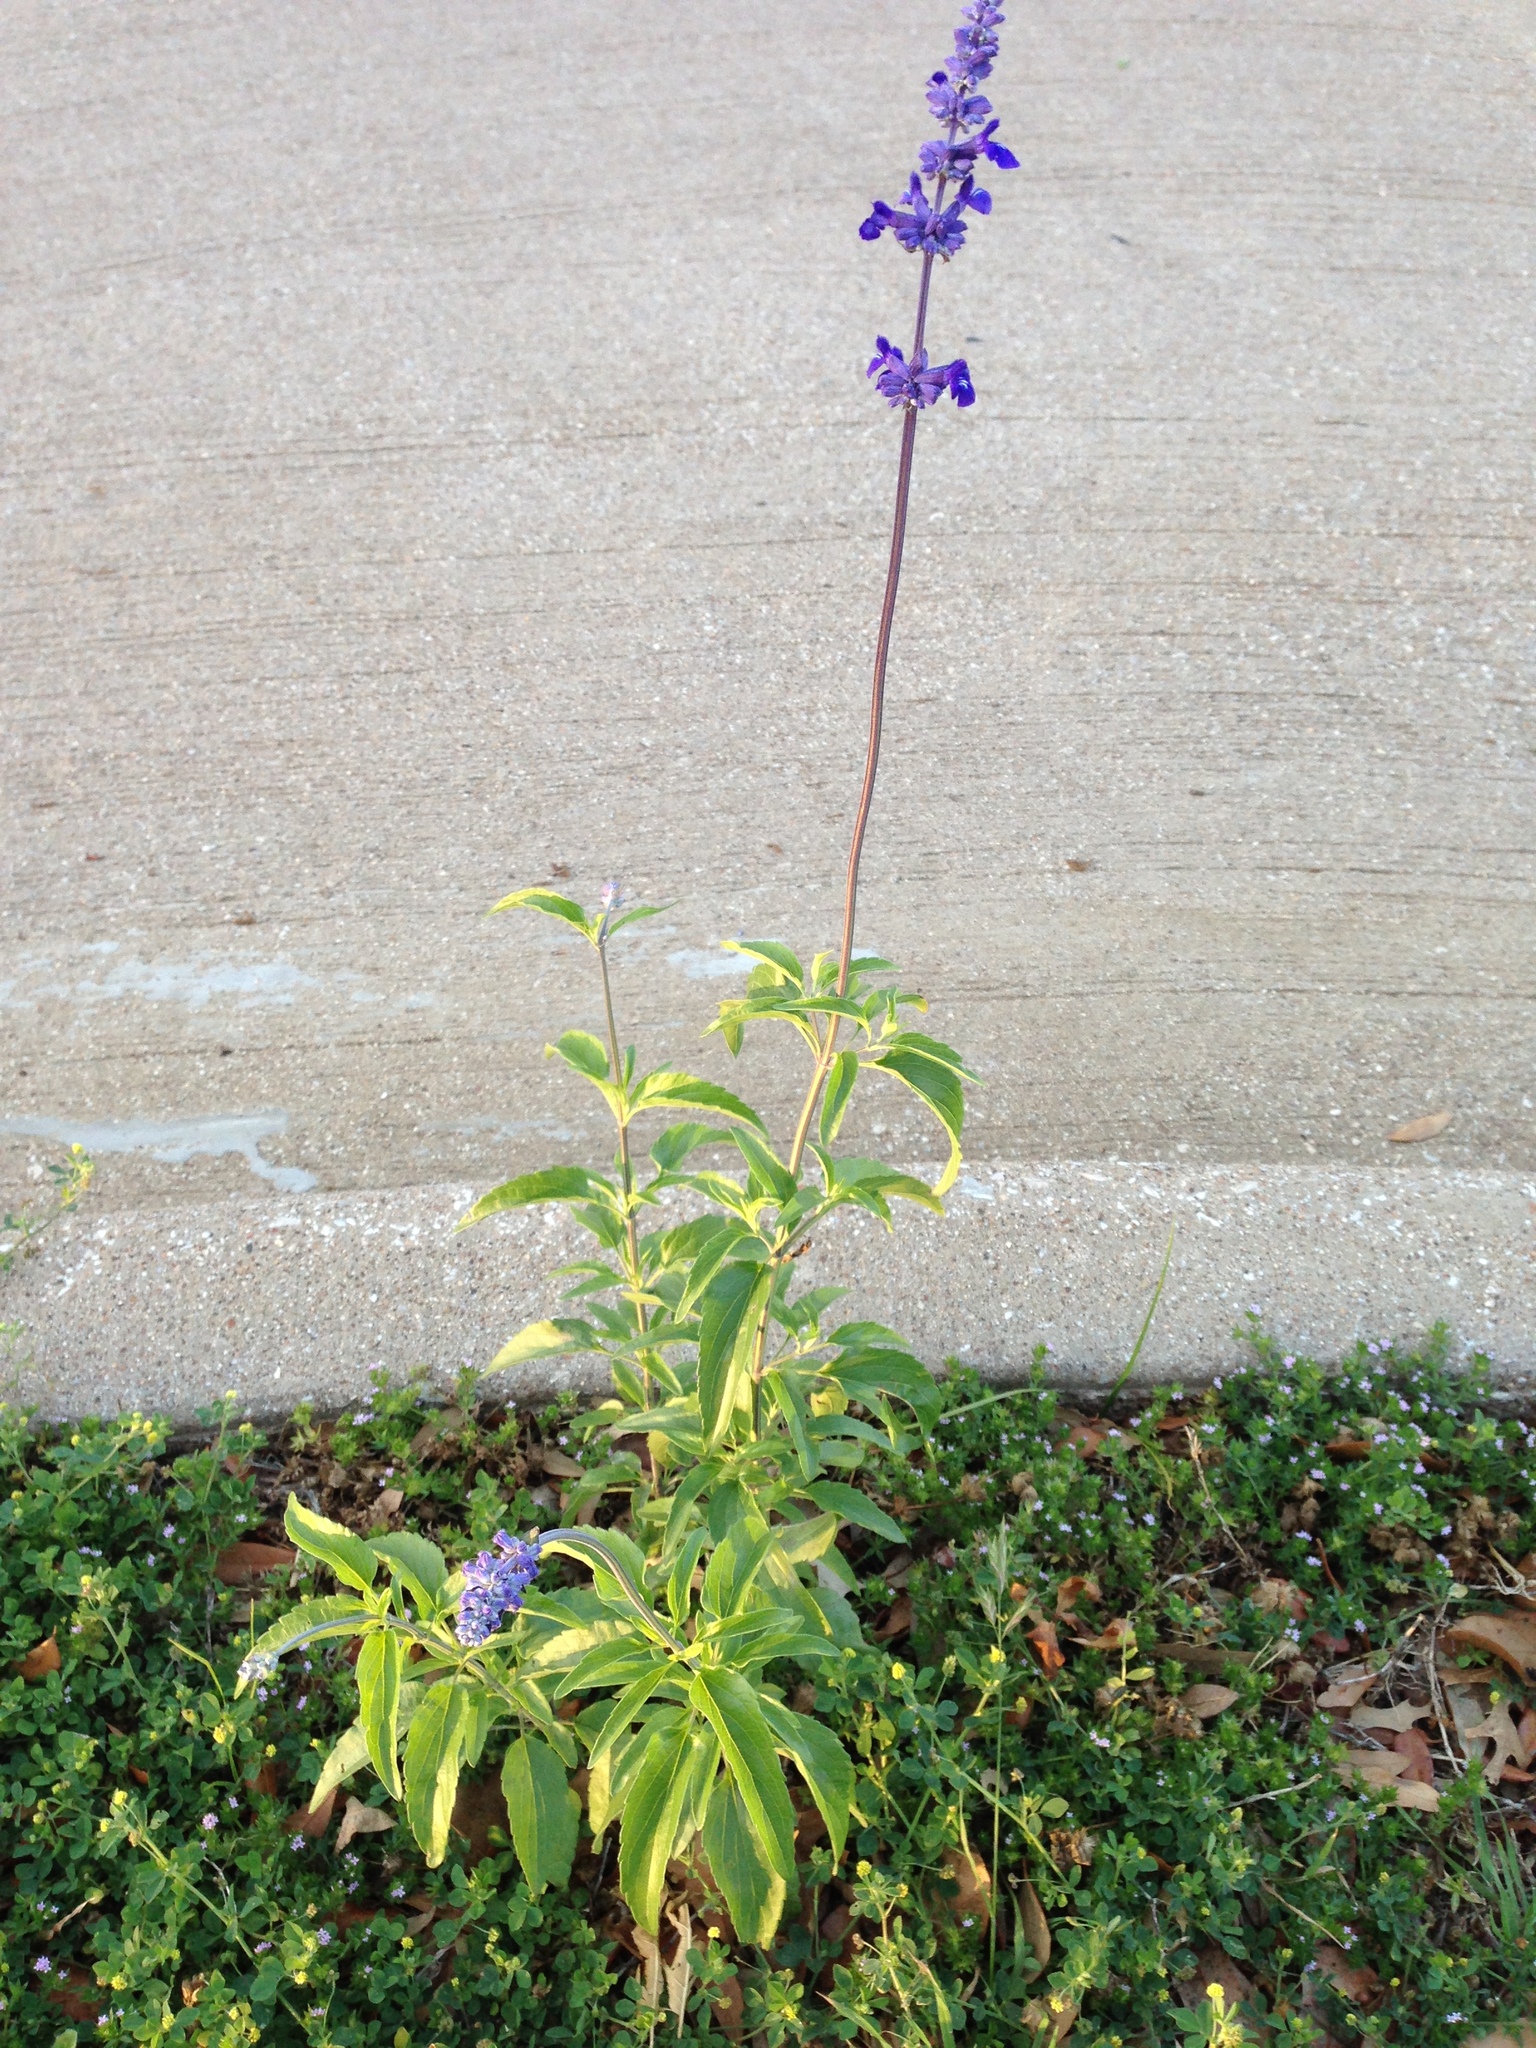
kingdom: Plantae
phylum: Tracheophyta
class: Magnoliopsida
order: Lamiales
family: Lamiaceae
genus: Salvia
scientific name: Salvia farinacea
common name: Mealy sage
